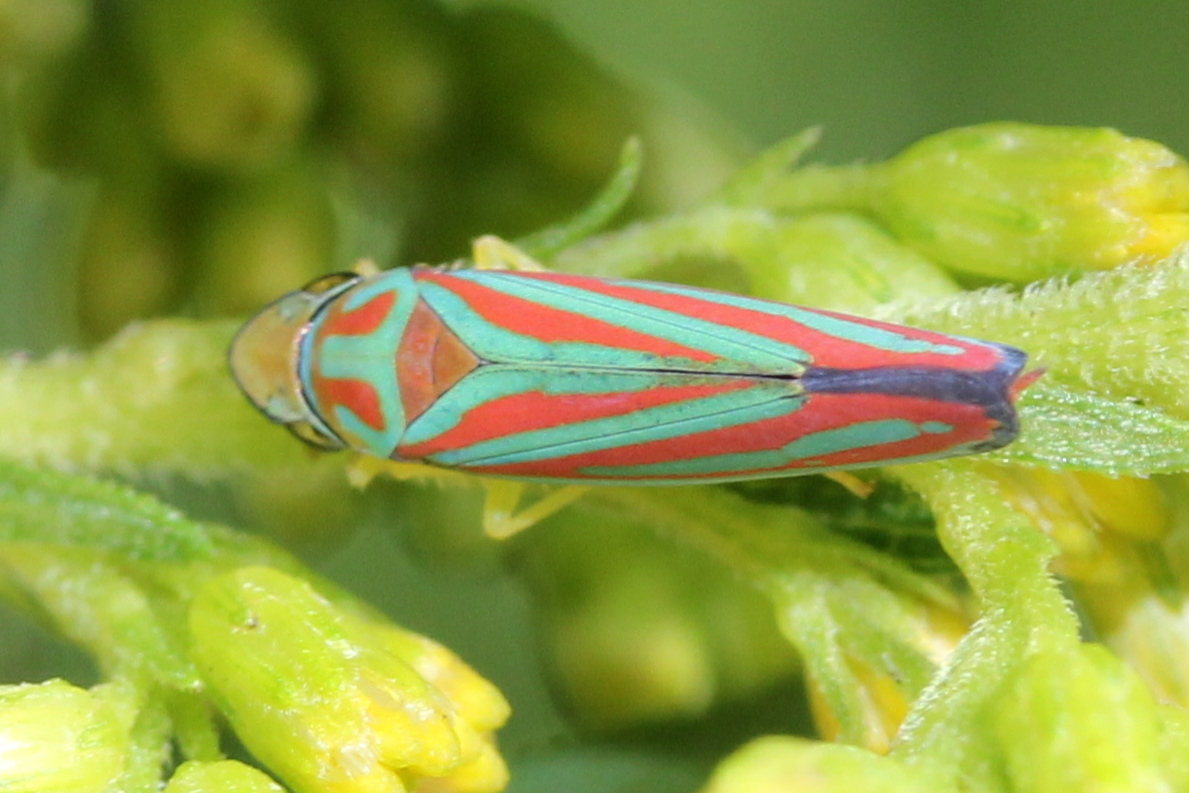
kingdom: Animalia
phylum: Arthropoda
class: Insecta
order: Hemiptera
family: Cicadellidae
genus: Graphocephala
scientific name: Graphocephala coccinea
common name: Candy-striped leafhopper
